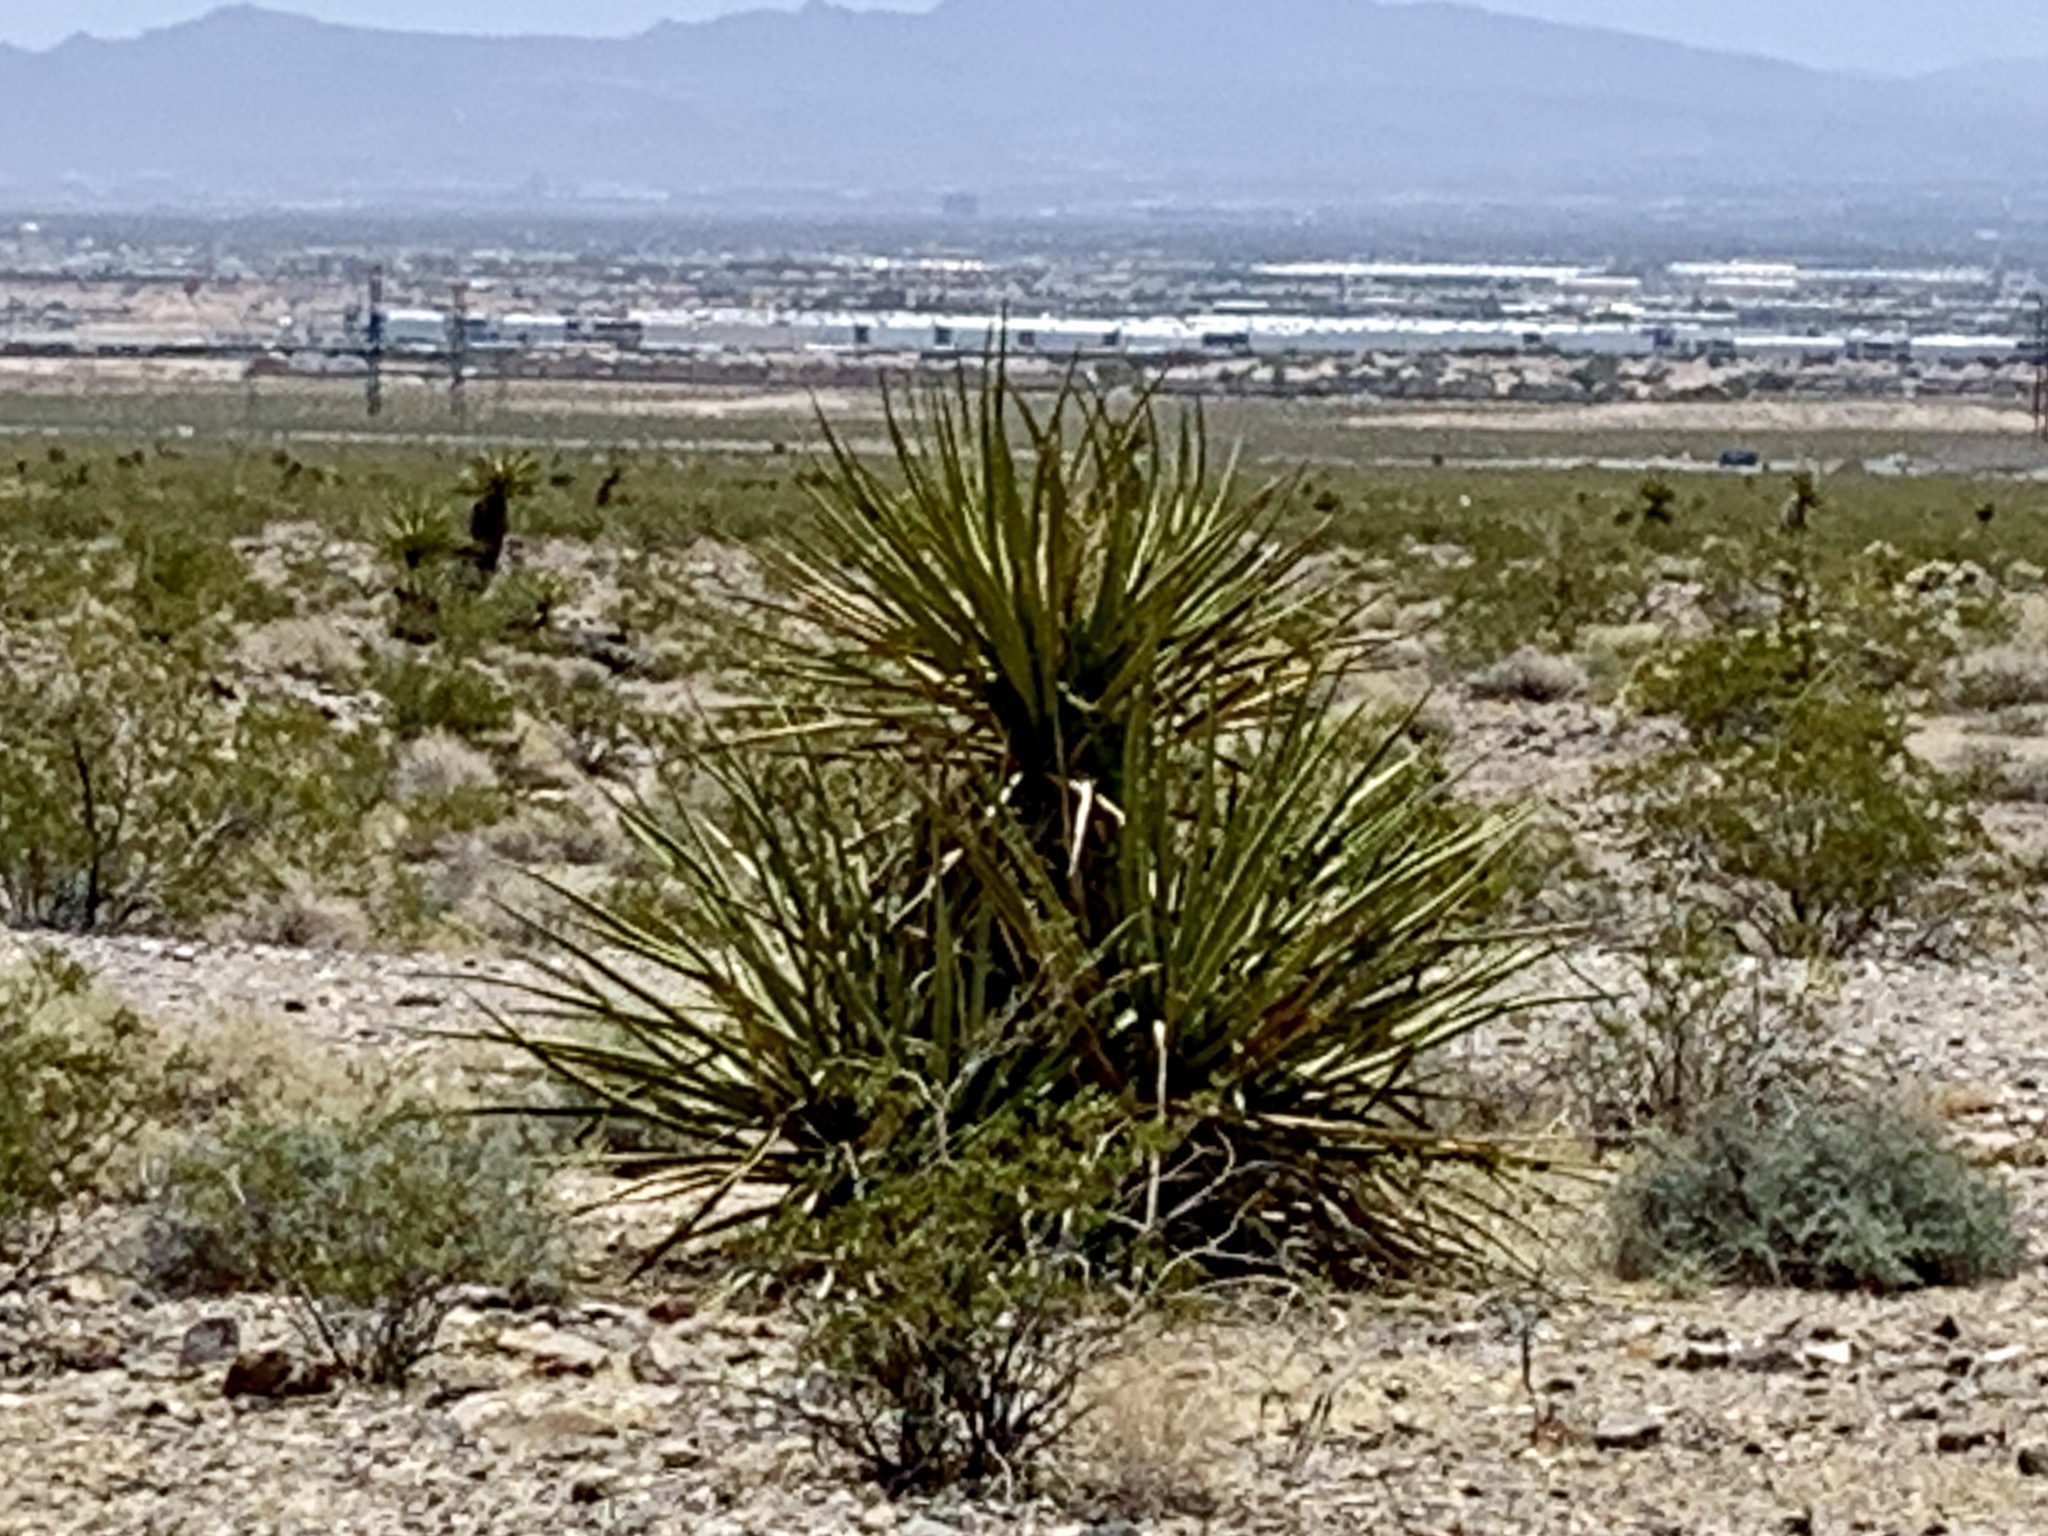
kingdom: Plantae
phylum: Tracheophyta
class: Liliopsida
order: Asparagales
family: Asparagaceae
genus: Yucca
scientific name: Yucca schidigera
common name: Mojave yucca
